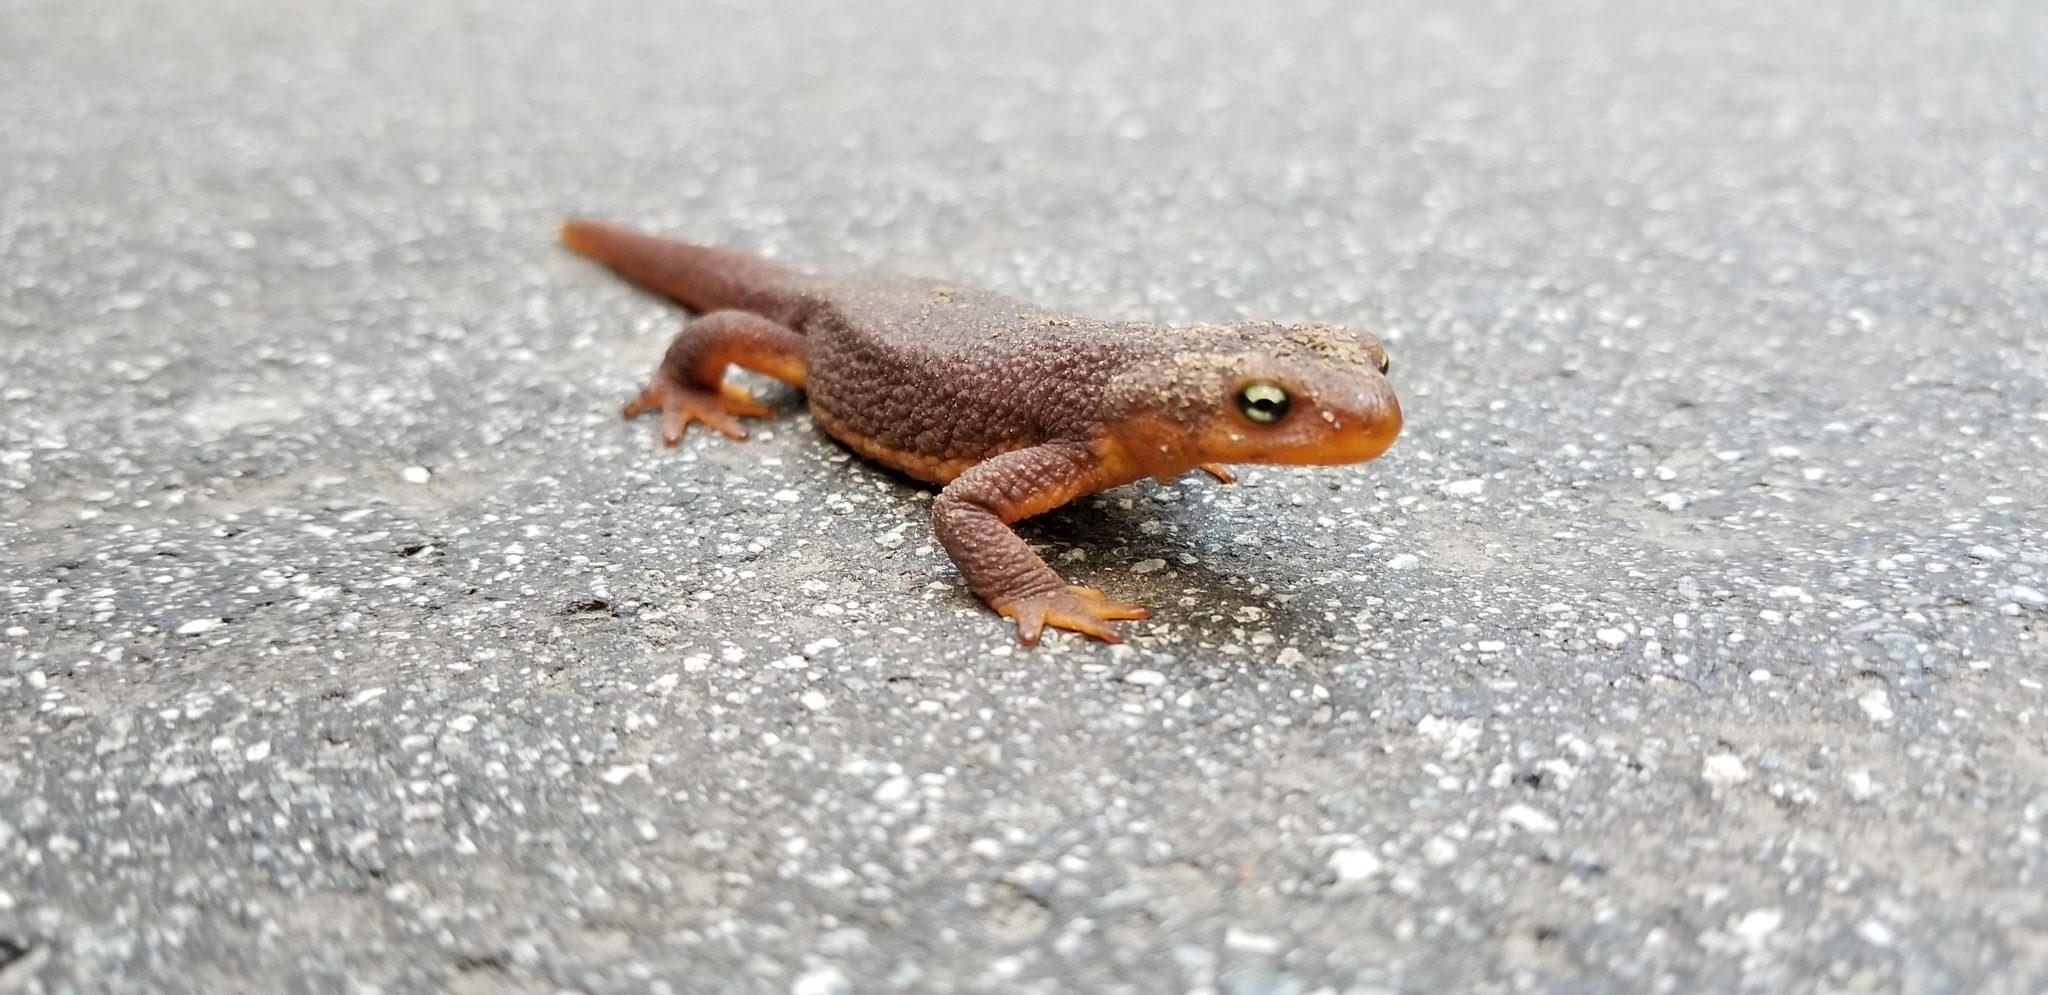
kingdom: Animalia
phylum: Chordata
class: Amphibia
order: Caudata
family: Salamandridae
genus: Taricha
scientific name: Taricha torosa
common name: California newt
